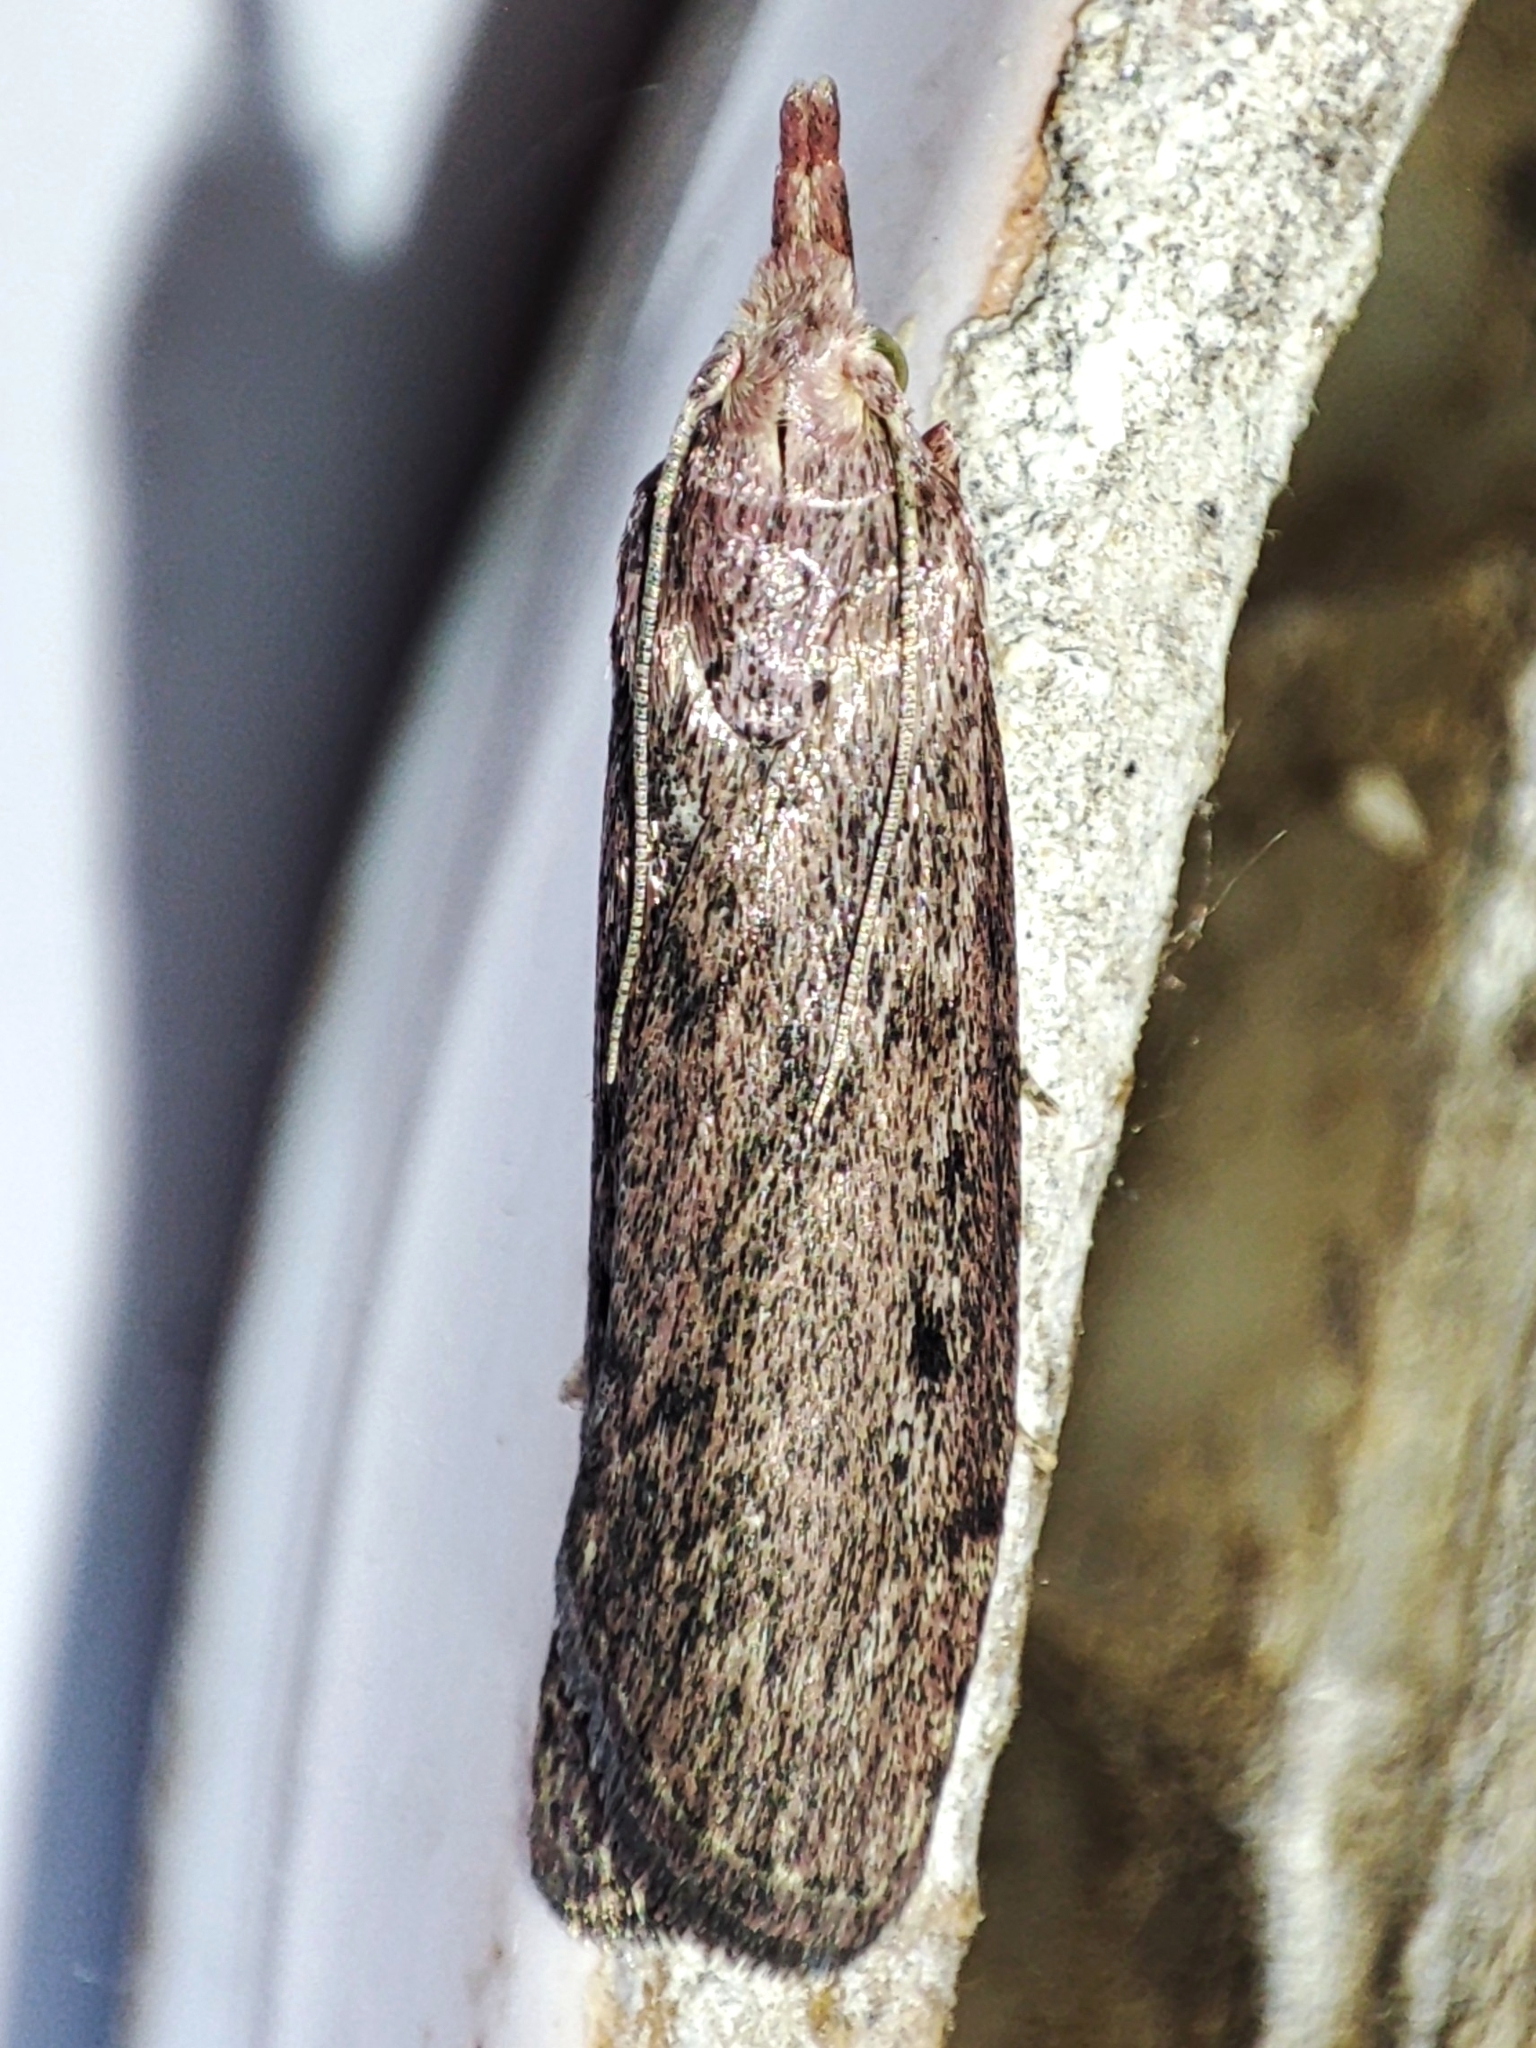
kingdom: Animalia
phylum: Arthropoda
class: Insecta
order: Lepidoptera
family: Pyralidae
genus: Aphomia
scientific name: Aphomia sociella
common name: Bee moth
